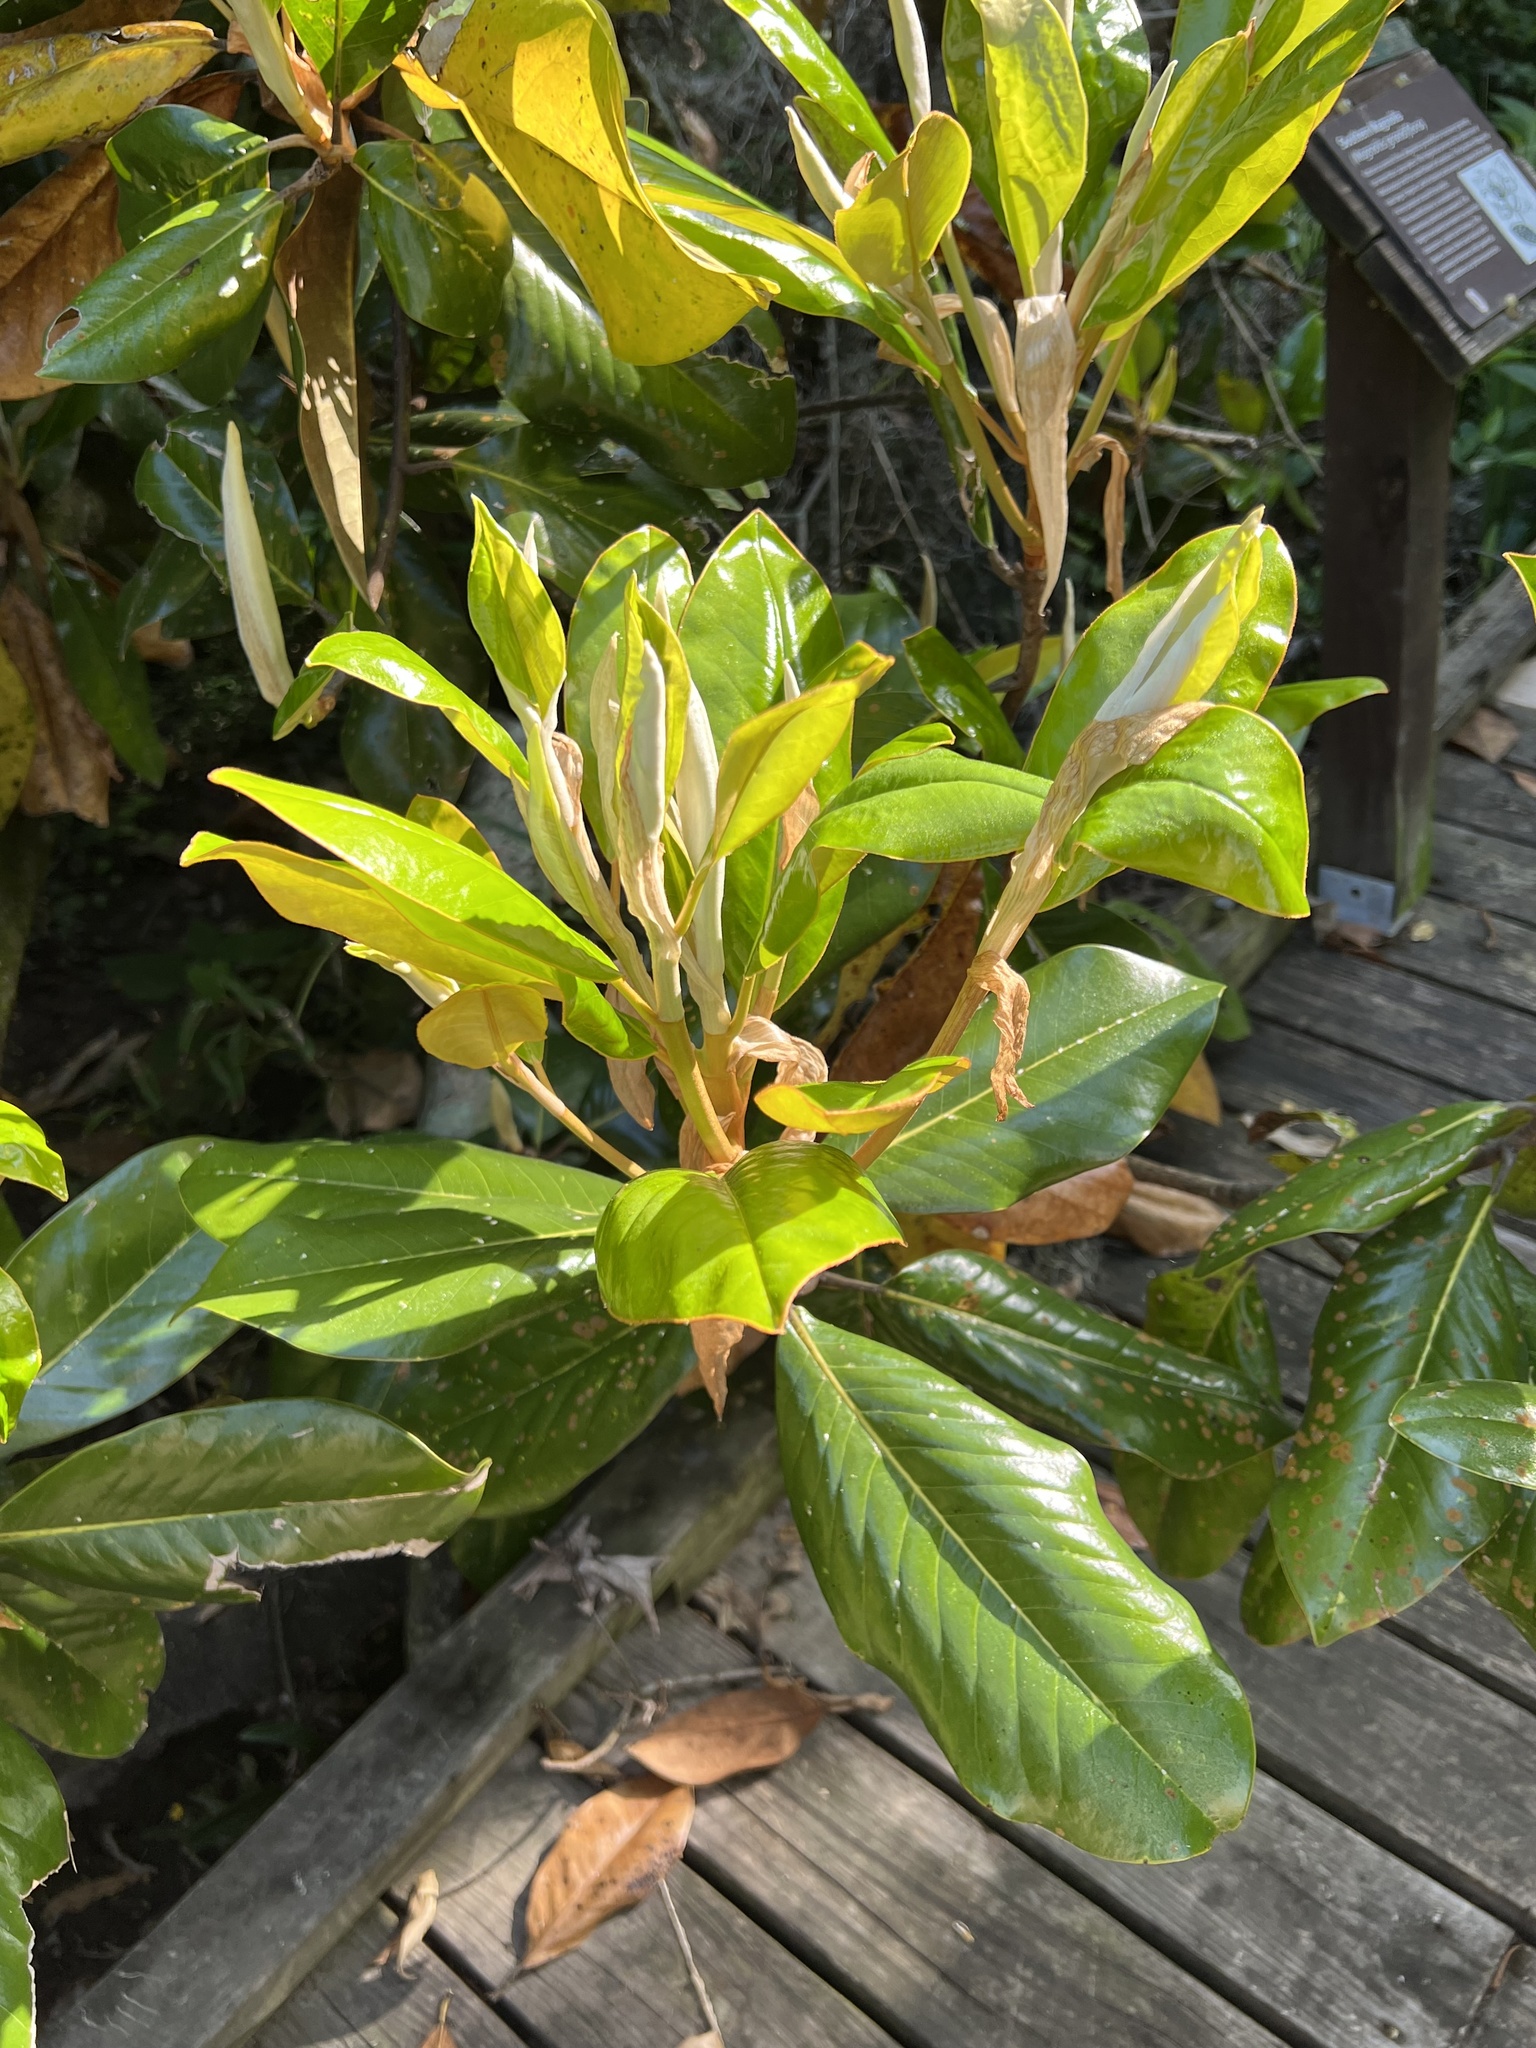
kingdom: Plantae
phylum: Tracheophyta
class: Magnoliopsida
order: Magnoliales
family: Magnoliaceae
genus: Magnolia
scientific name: Magnolia grandiflora
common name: Southern magnolia
